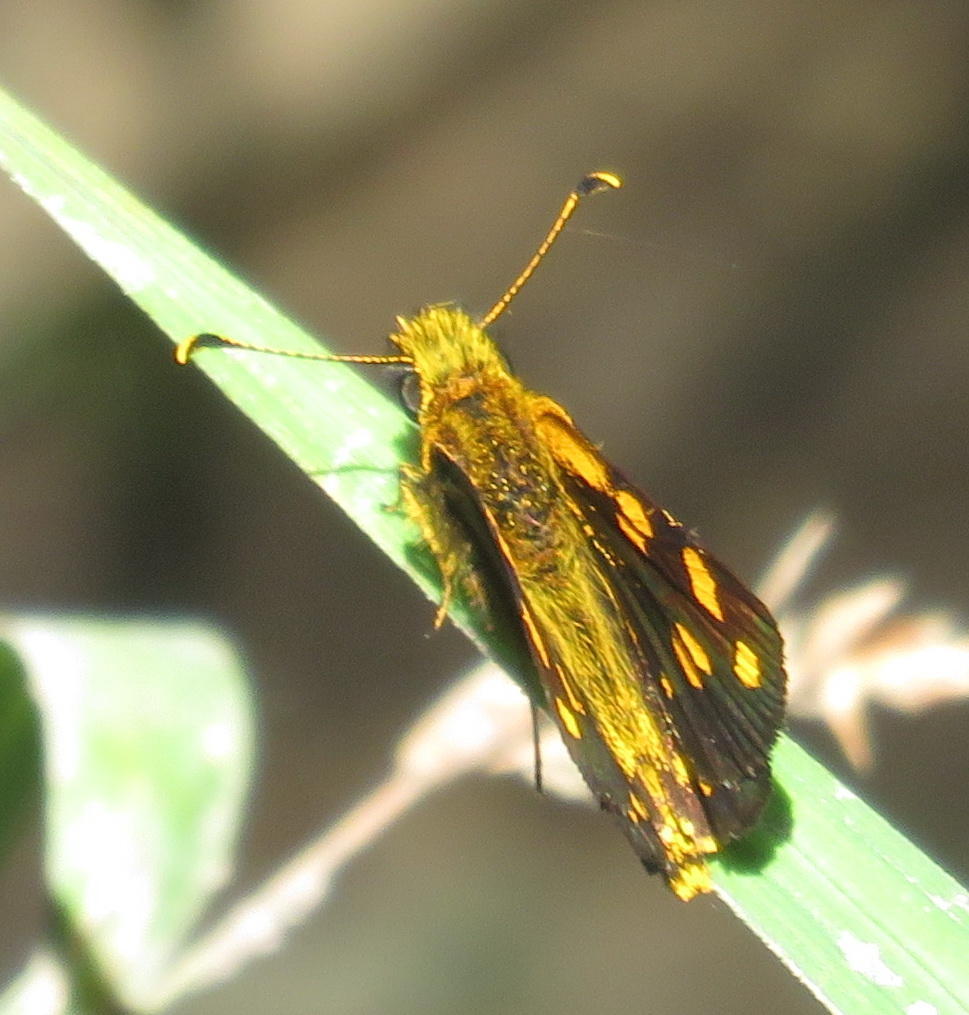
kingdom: Animalia
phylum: Arthropoda
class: Insecta
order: Lepidoptera
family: Hesperiidae
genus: Metisella
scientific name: Metisella metis
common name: Western gold-spotted sylph
